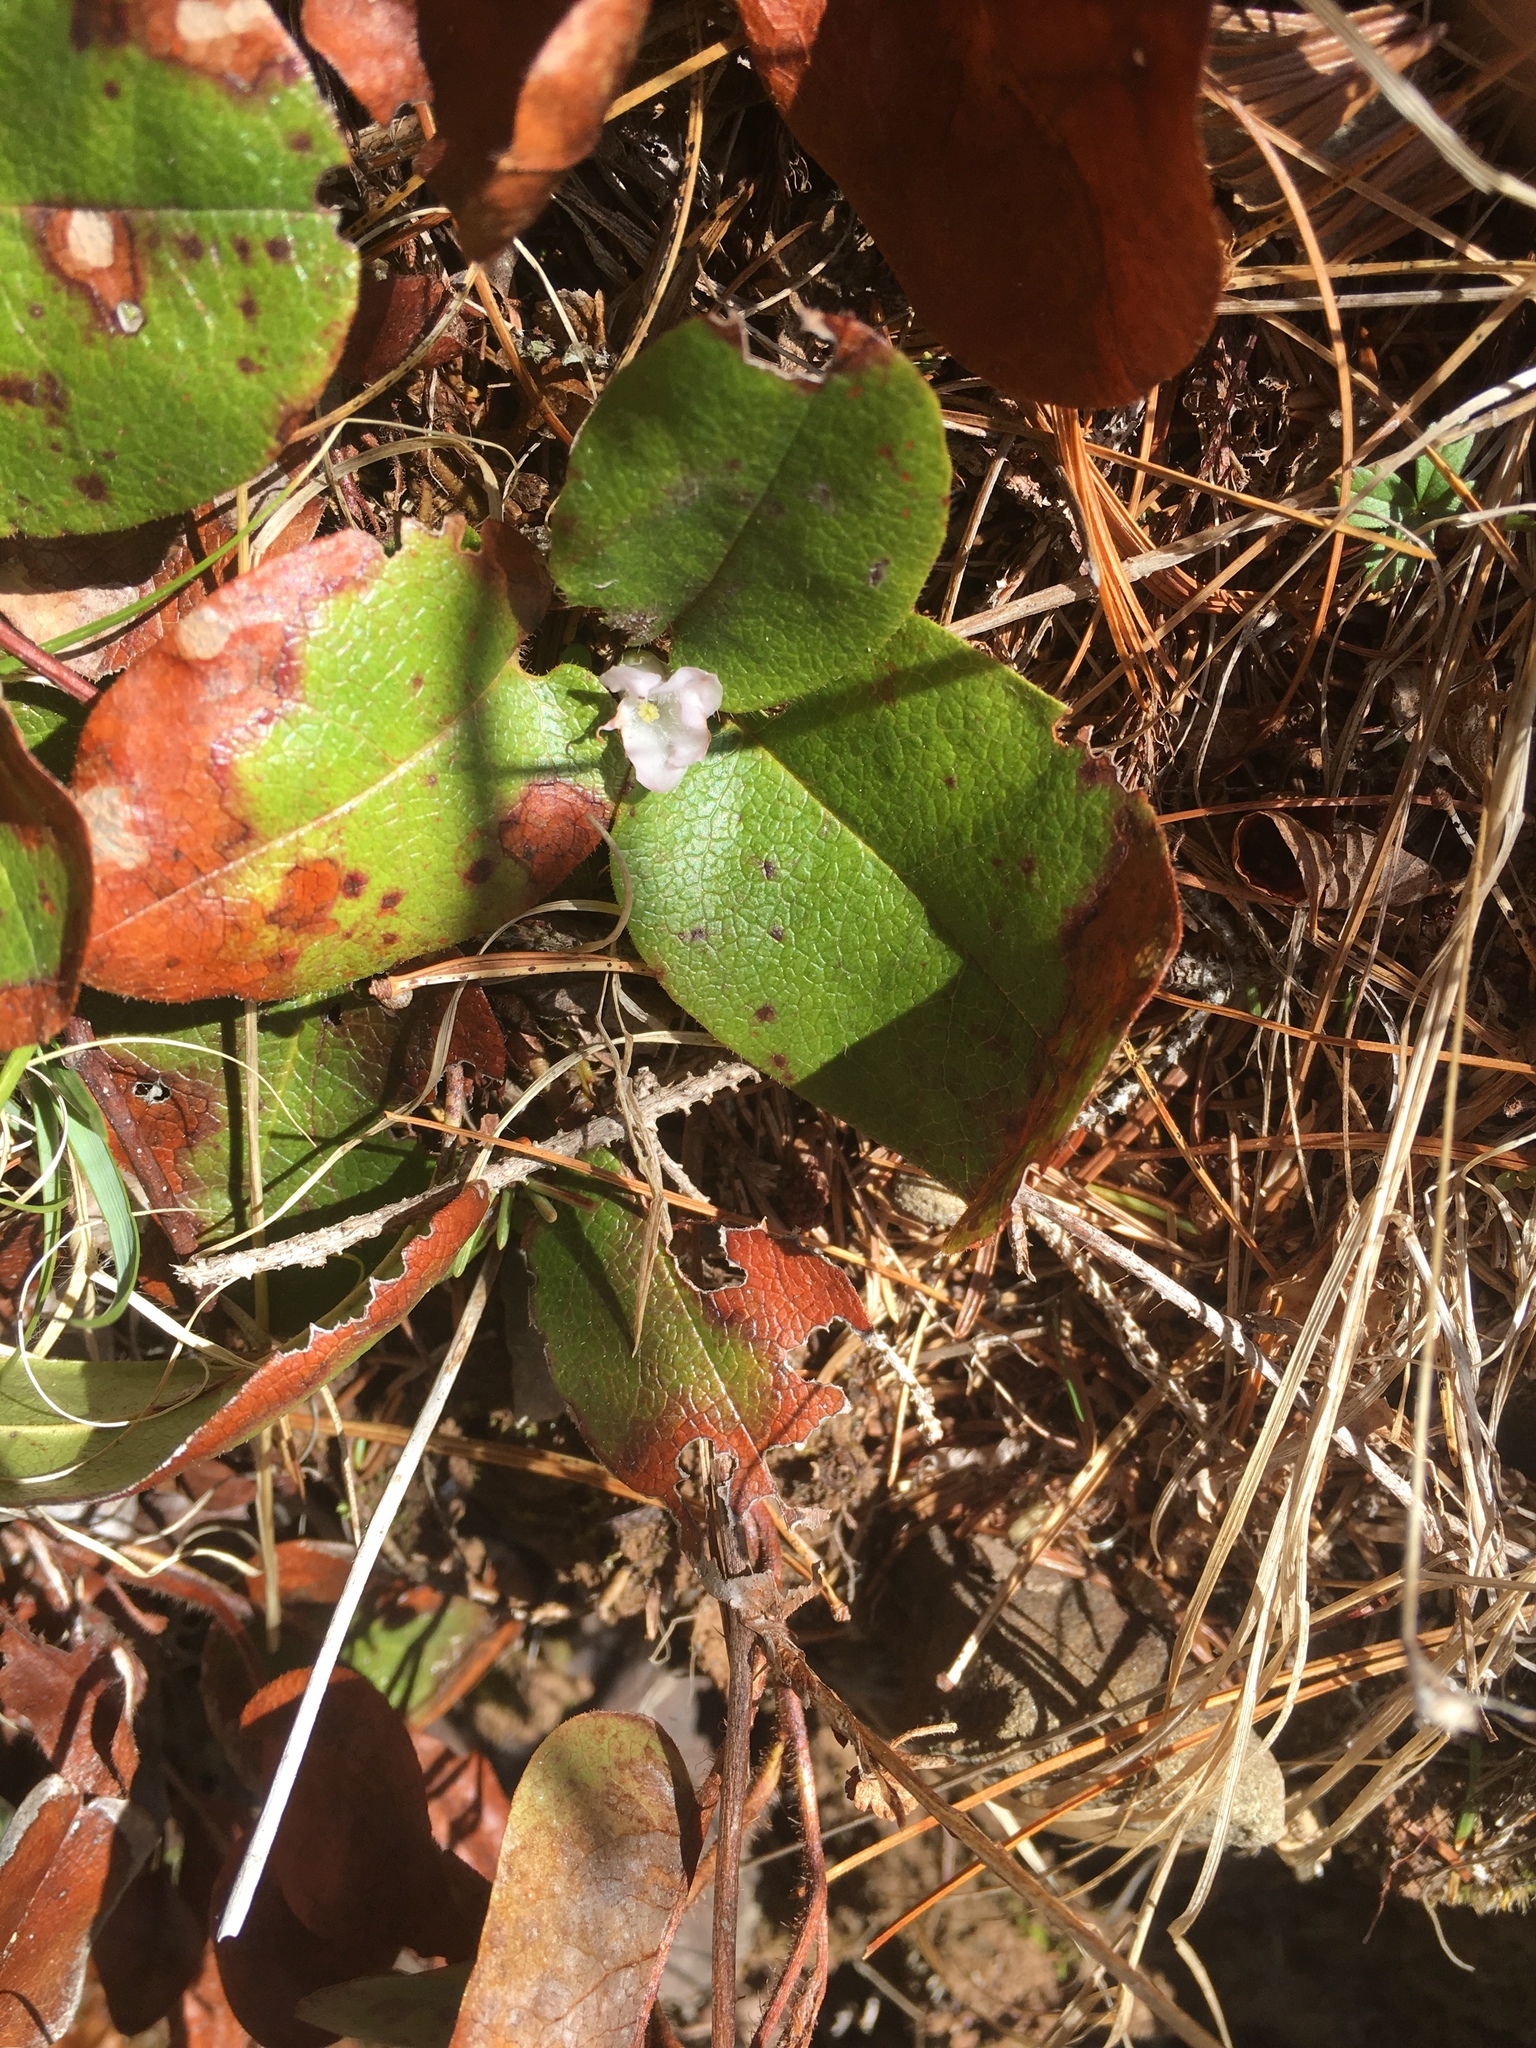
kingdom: Plantae
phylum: Tracheophyta
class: Magnoliopsida
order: Ericales
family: Ericaceae
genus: Epigaea
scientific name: Epigaea repens
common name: Gravelroot
